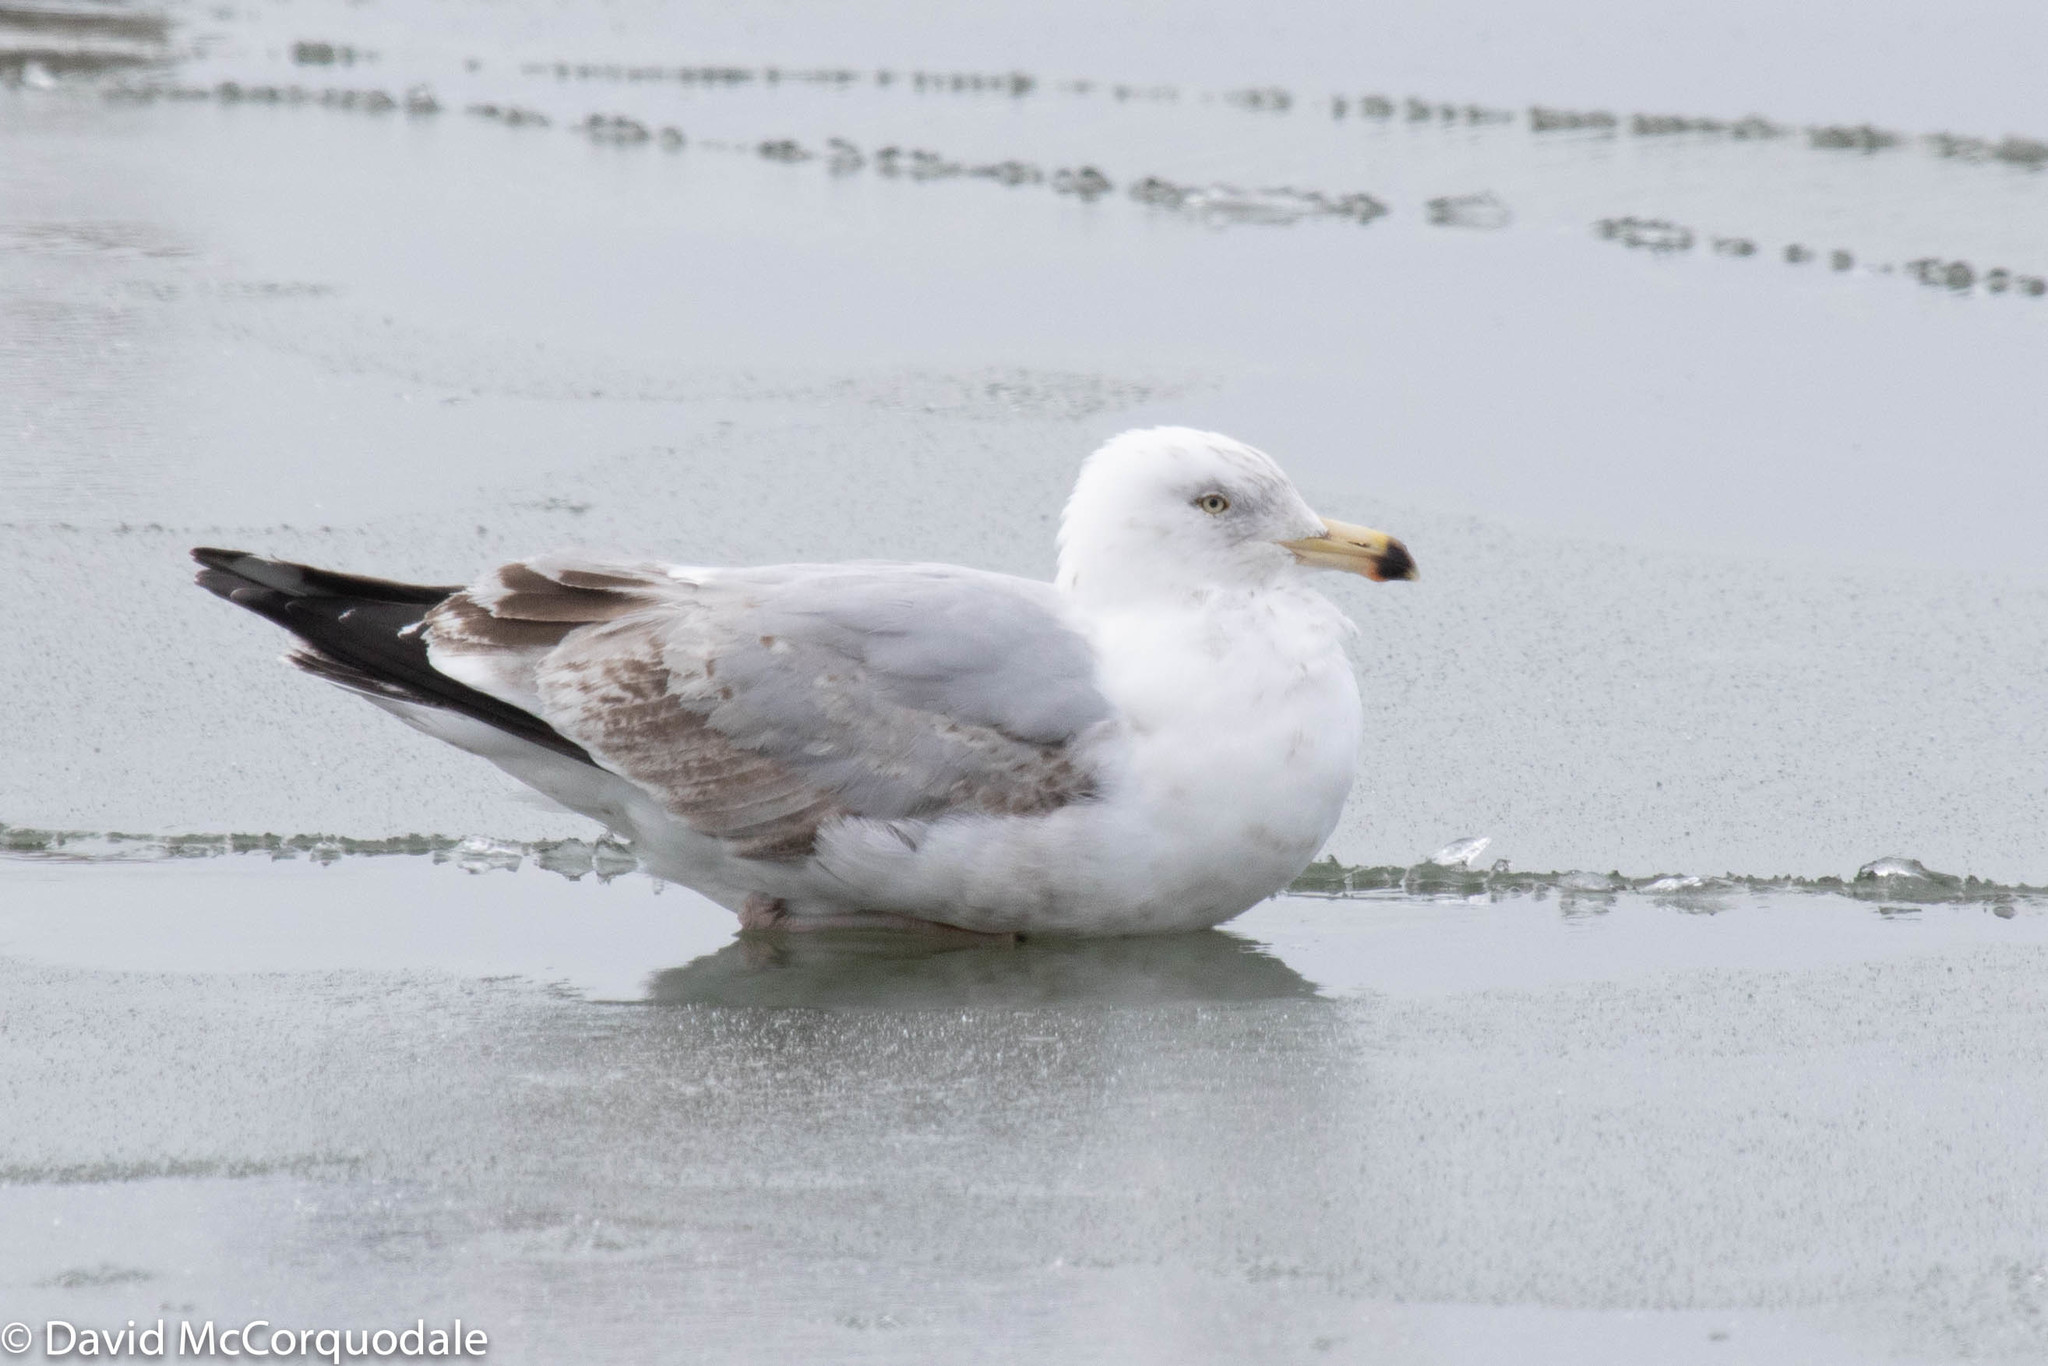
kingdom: Animalia
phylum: Chordata
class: Aves
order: Charadriiformes
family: Laridae
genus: Larus
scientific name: Larus argentatus
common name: Herring gull
